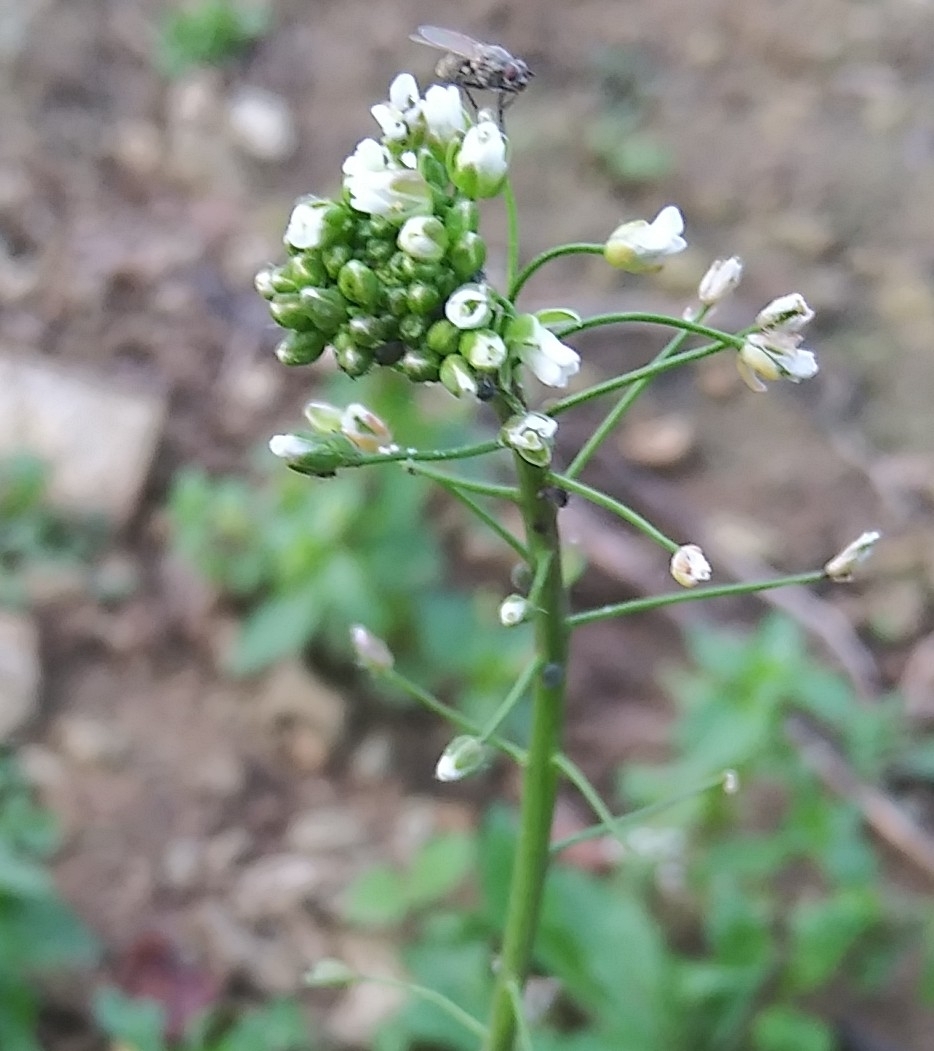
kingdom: Plantae
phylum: Tracheophyta
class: Magnoliopsida
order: Brassicales
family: Brassicaceae
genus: Capsella
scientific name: Capsella bursa-pastoris
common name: Shepherd's purse
